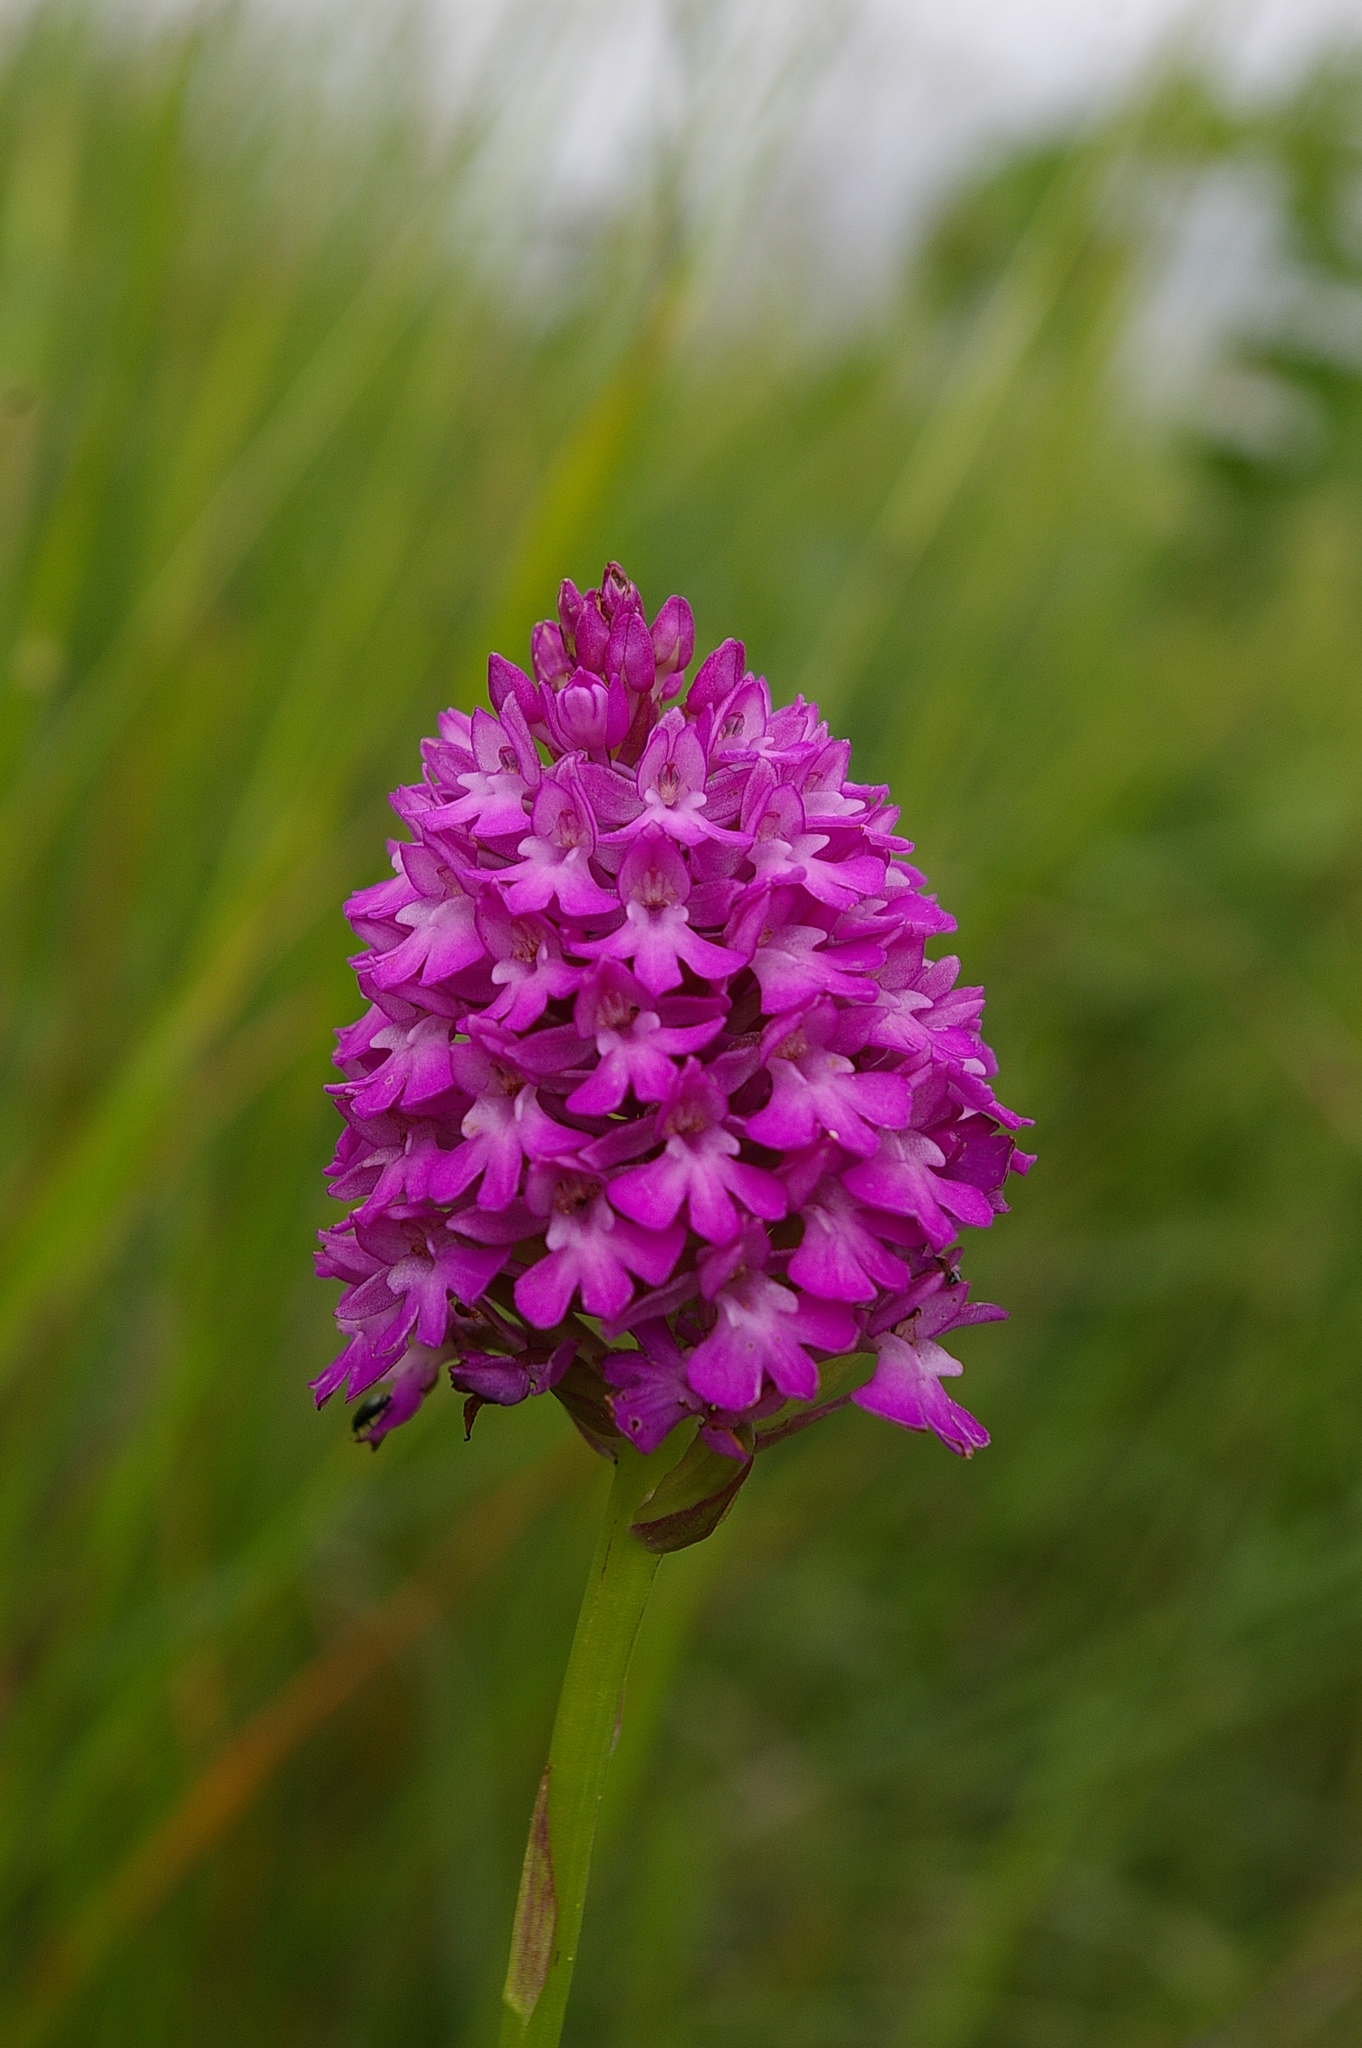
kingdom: Plantae
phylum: Tracheophyta
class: Liliopsida
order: Asparagales
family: Orchidaceae
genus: Anacamptis
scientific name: Anacamptis pyramidalis
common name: Pyramidal orchid
